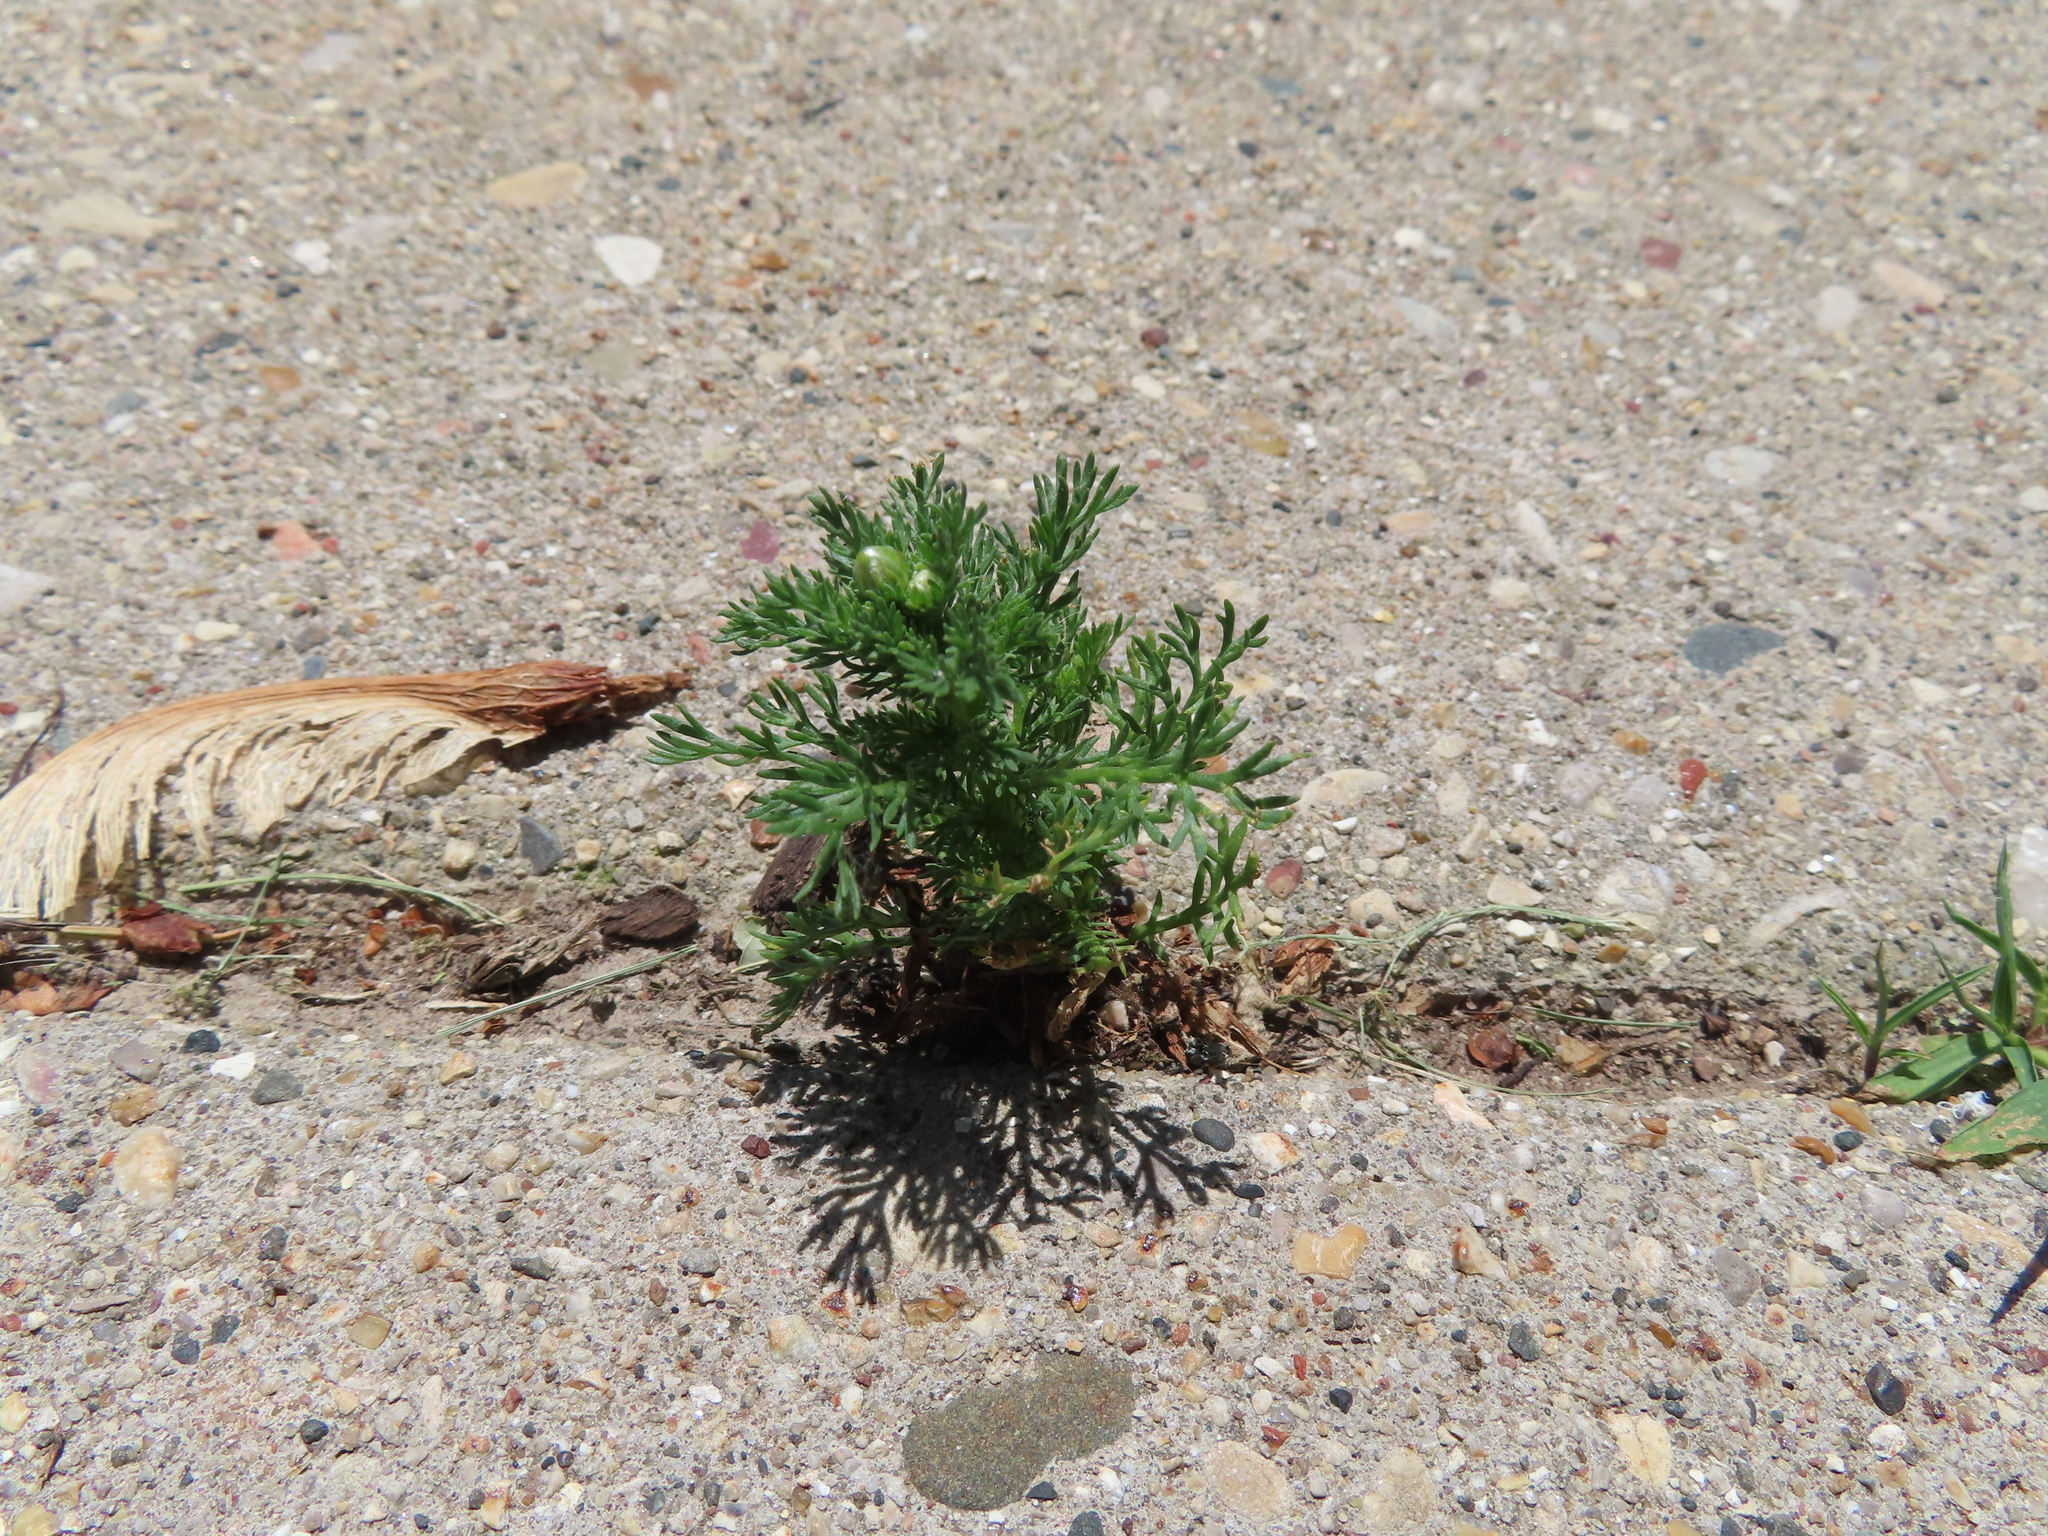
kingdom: Plantae
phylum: Tracheophyta
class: Magnoliopsida
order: Asterales
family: Asteraceae
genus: Matricaria
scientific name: Matricaria discoidea
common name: Disc mayweed
